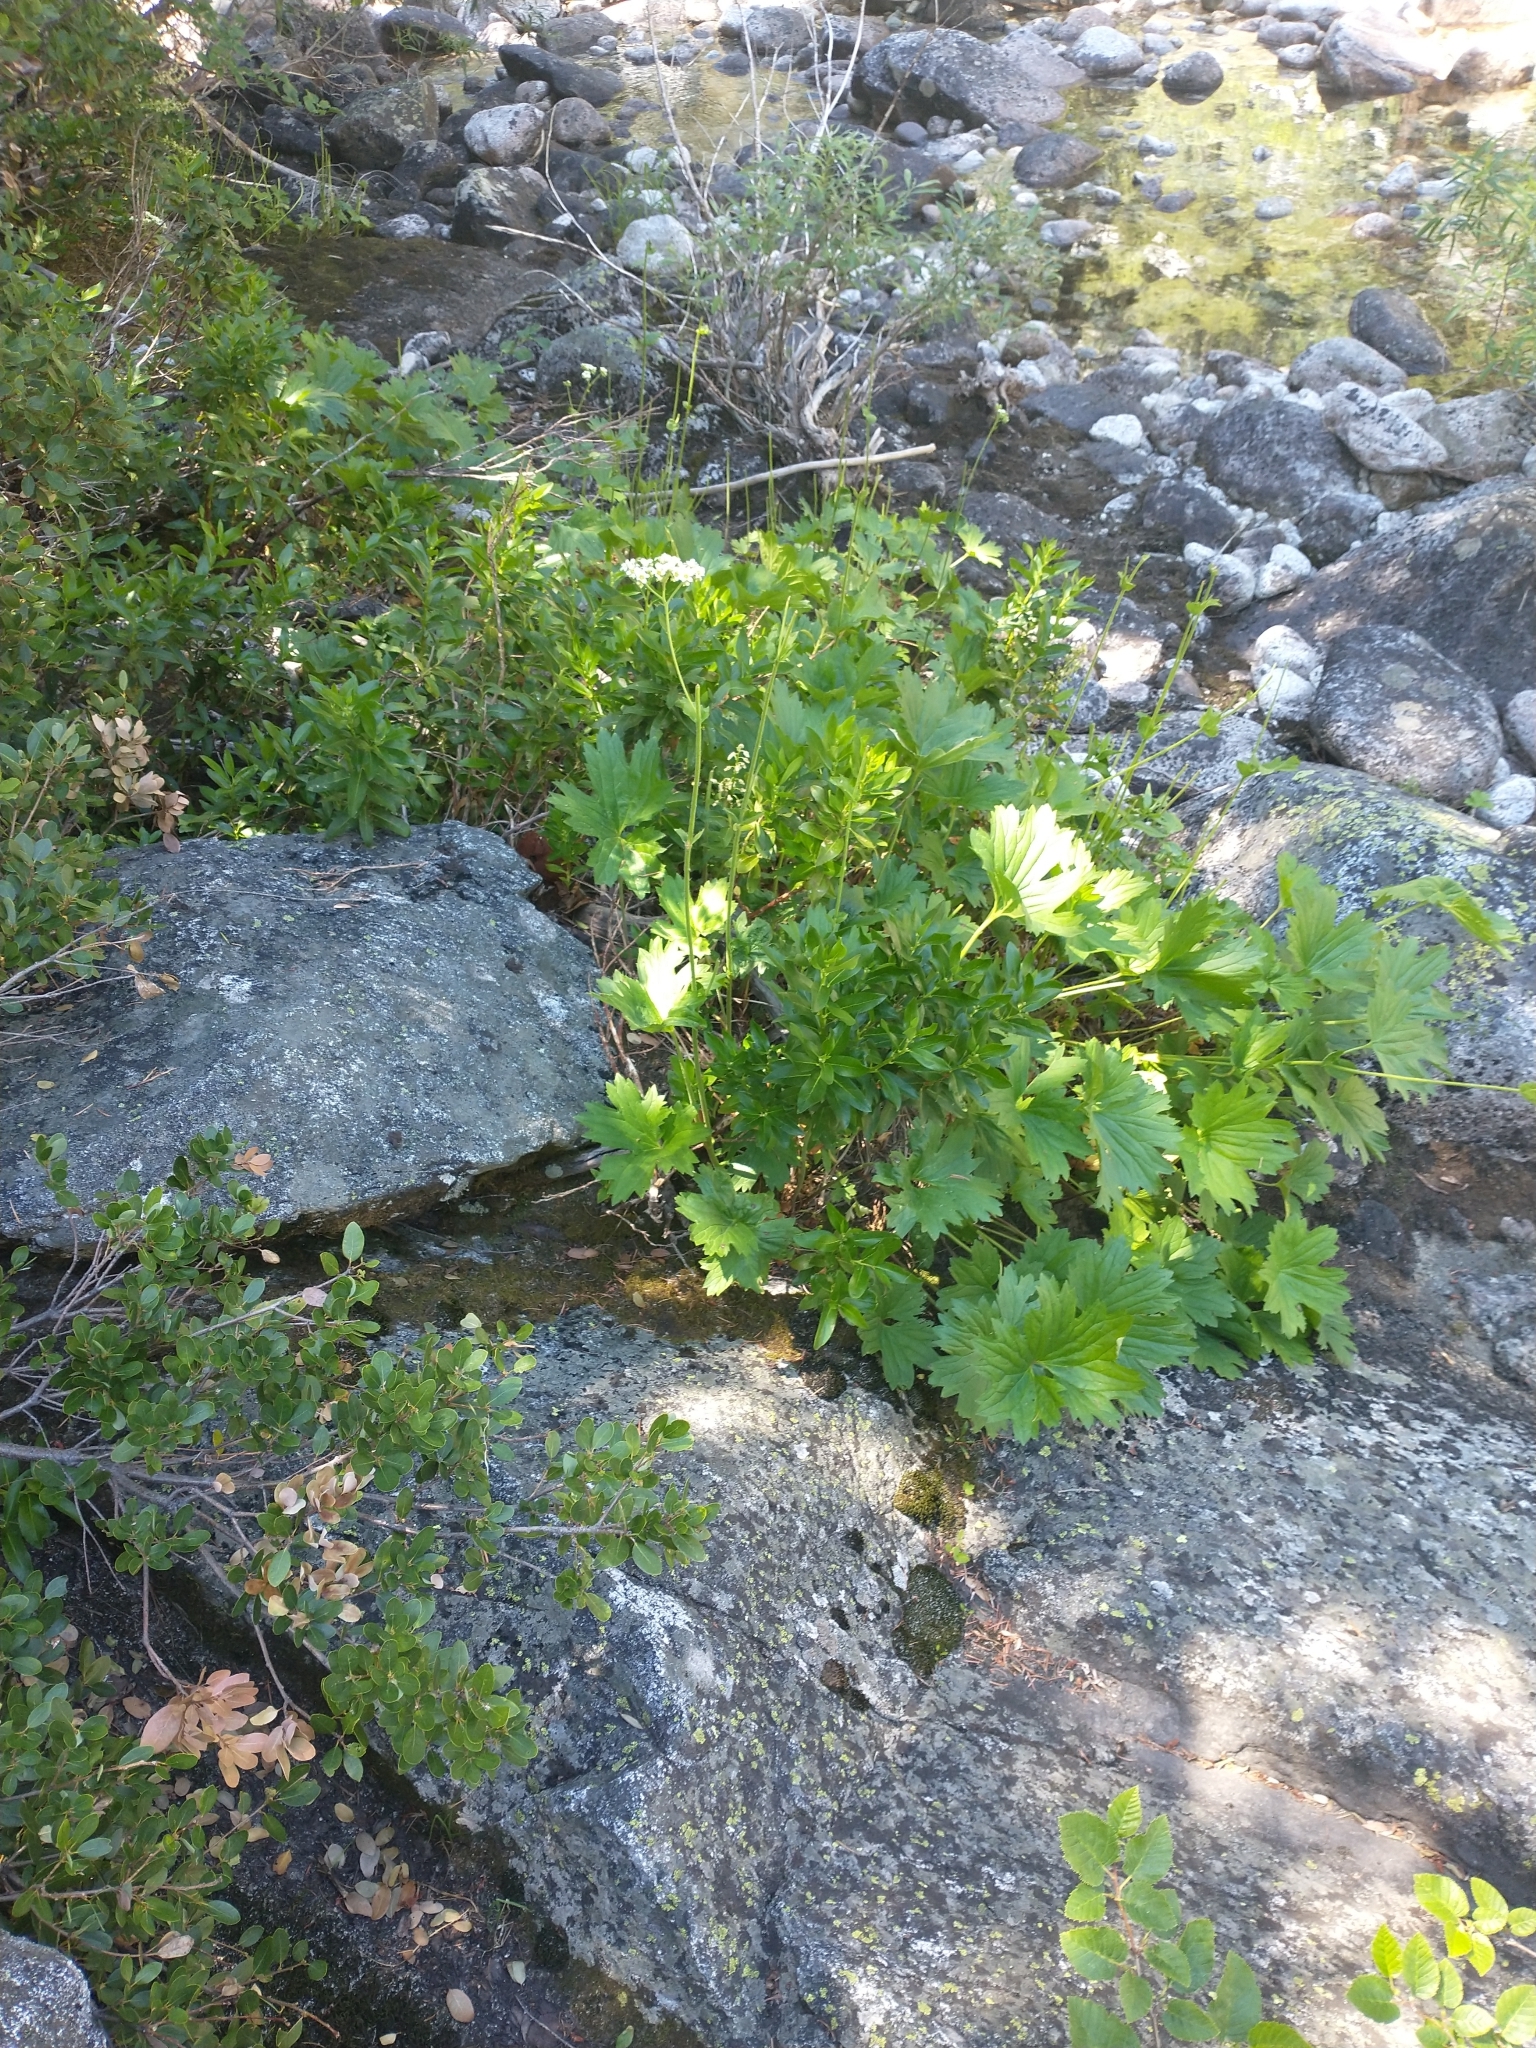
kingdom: Plantae
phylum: Tracheophyta
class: Magnoliopsida
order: Saxifragales
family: Saxifragaceae
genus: Boykinia
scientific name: Boykinia major
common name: Large boykinia
